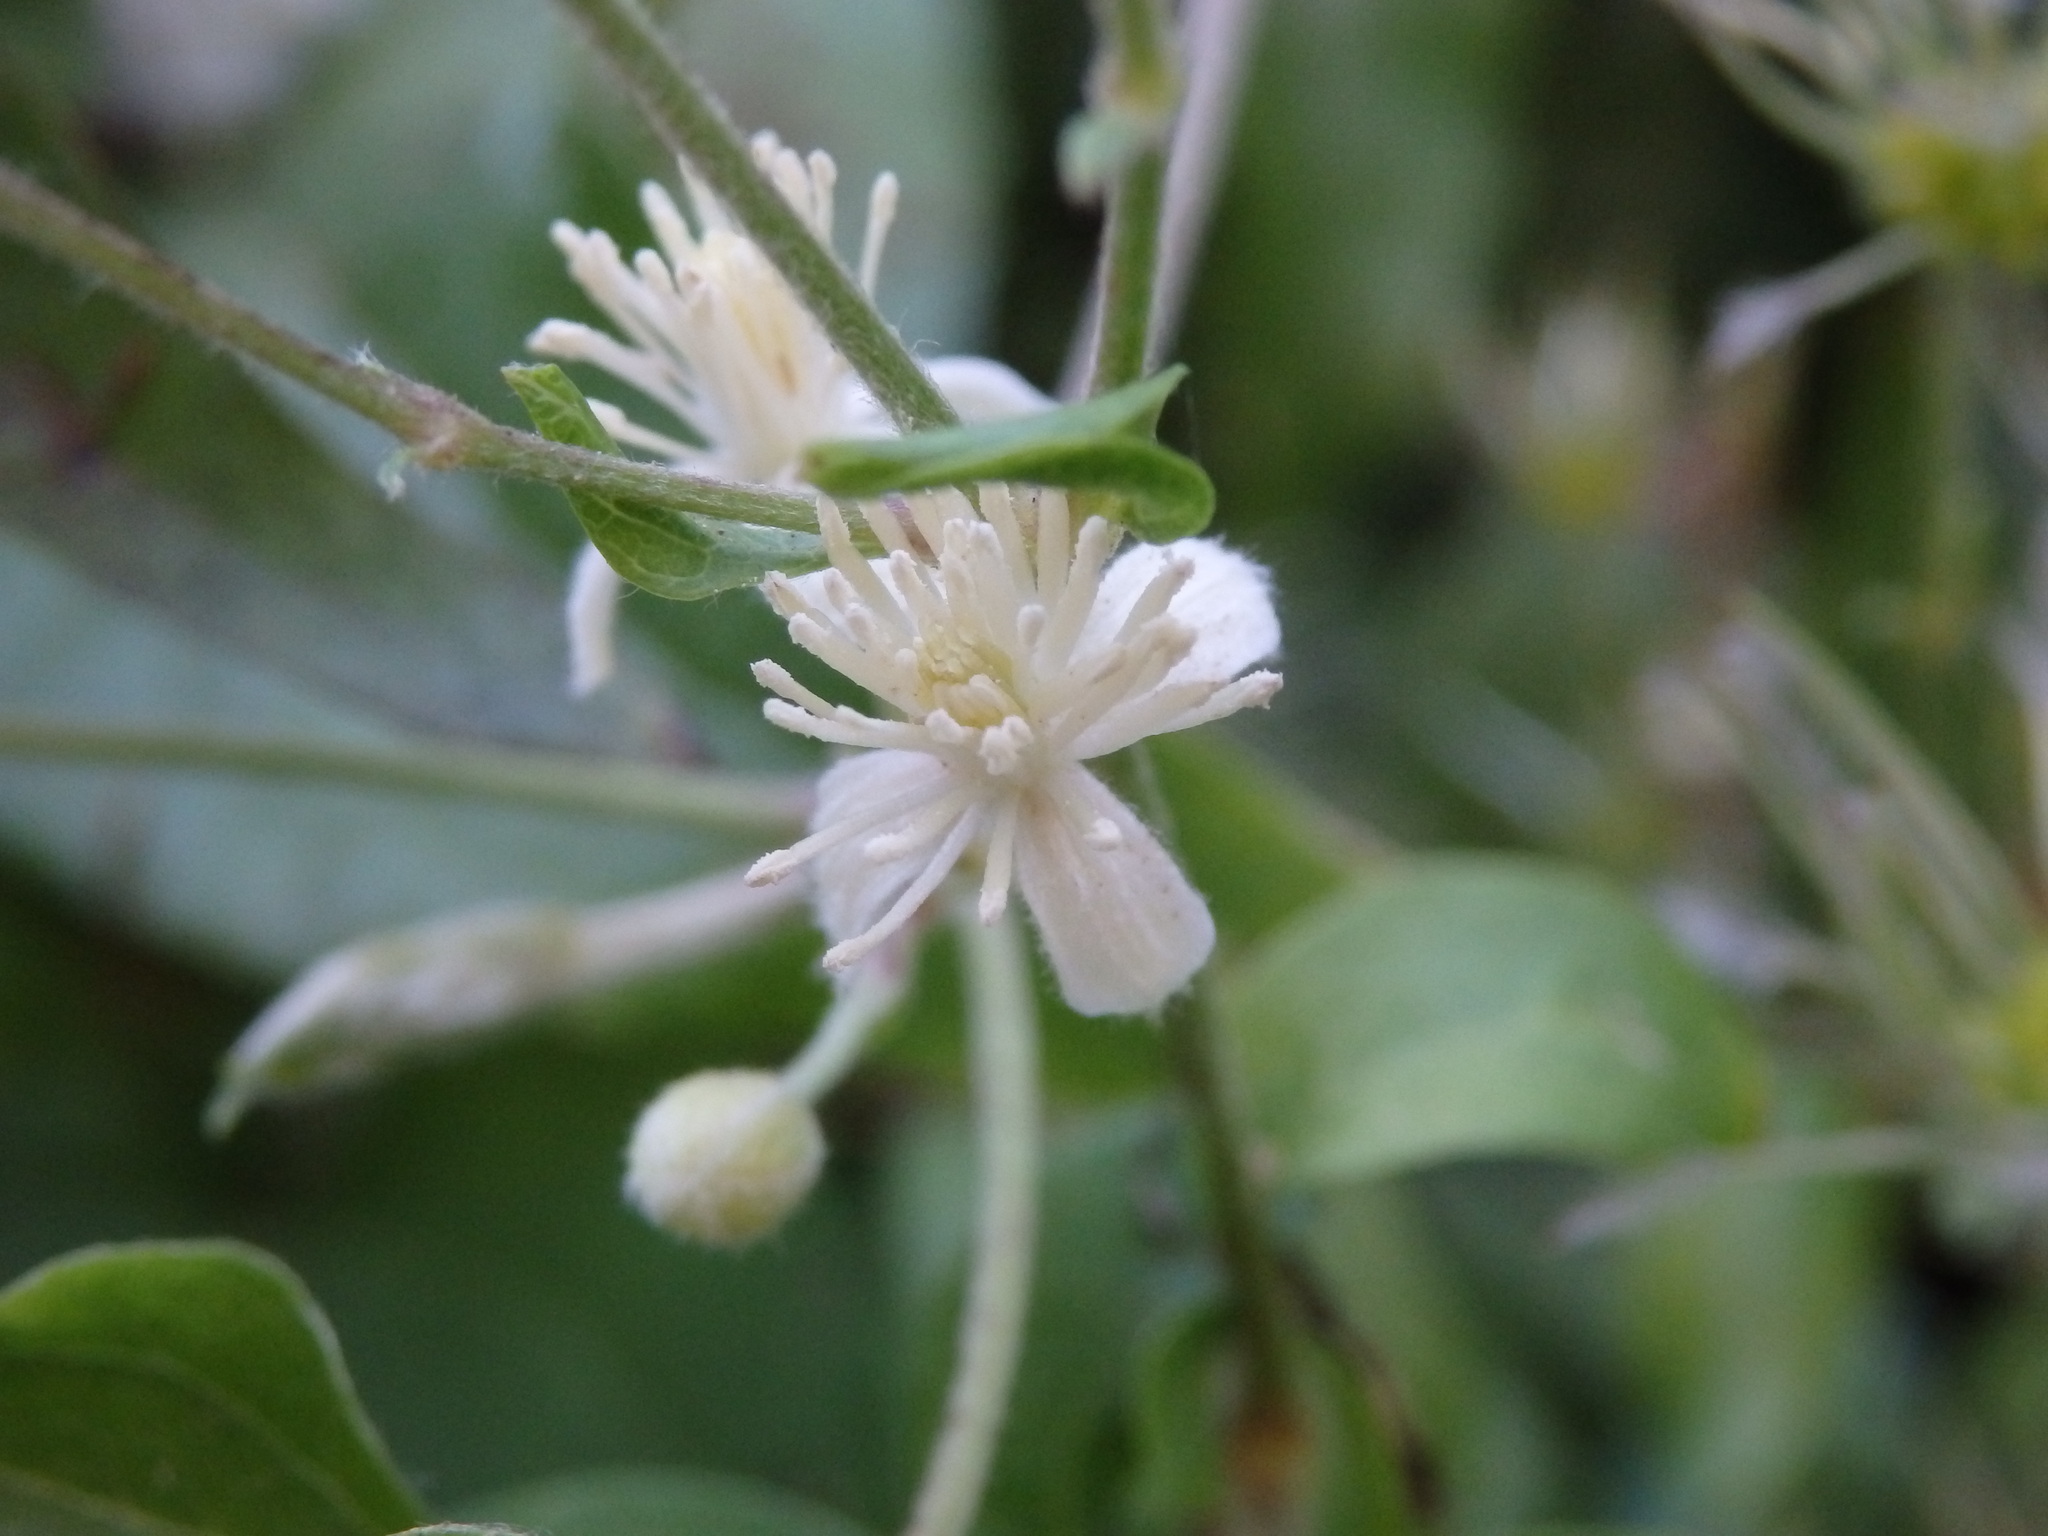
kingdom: Plantae
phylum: Tracheophyta
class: Magnoliopsida
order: Ranunculales
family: Ranunculaceae
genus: Clematis
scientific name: Clematis vitalba
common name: Evergreen clematis
